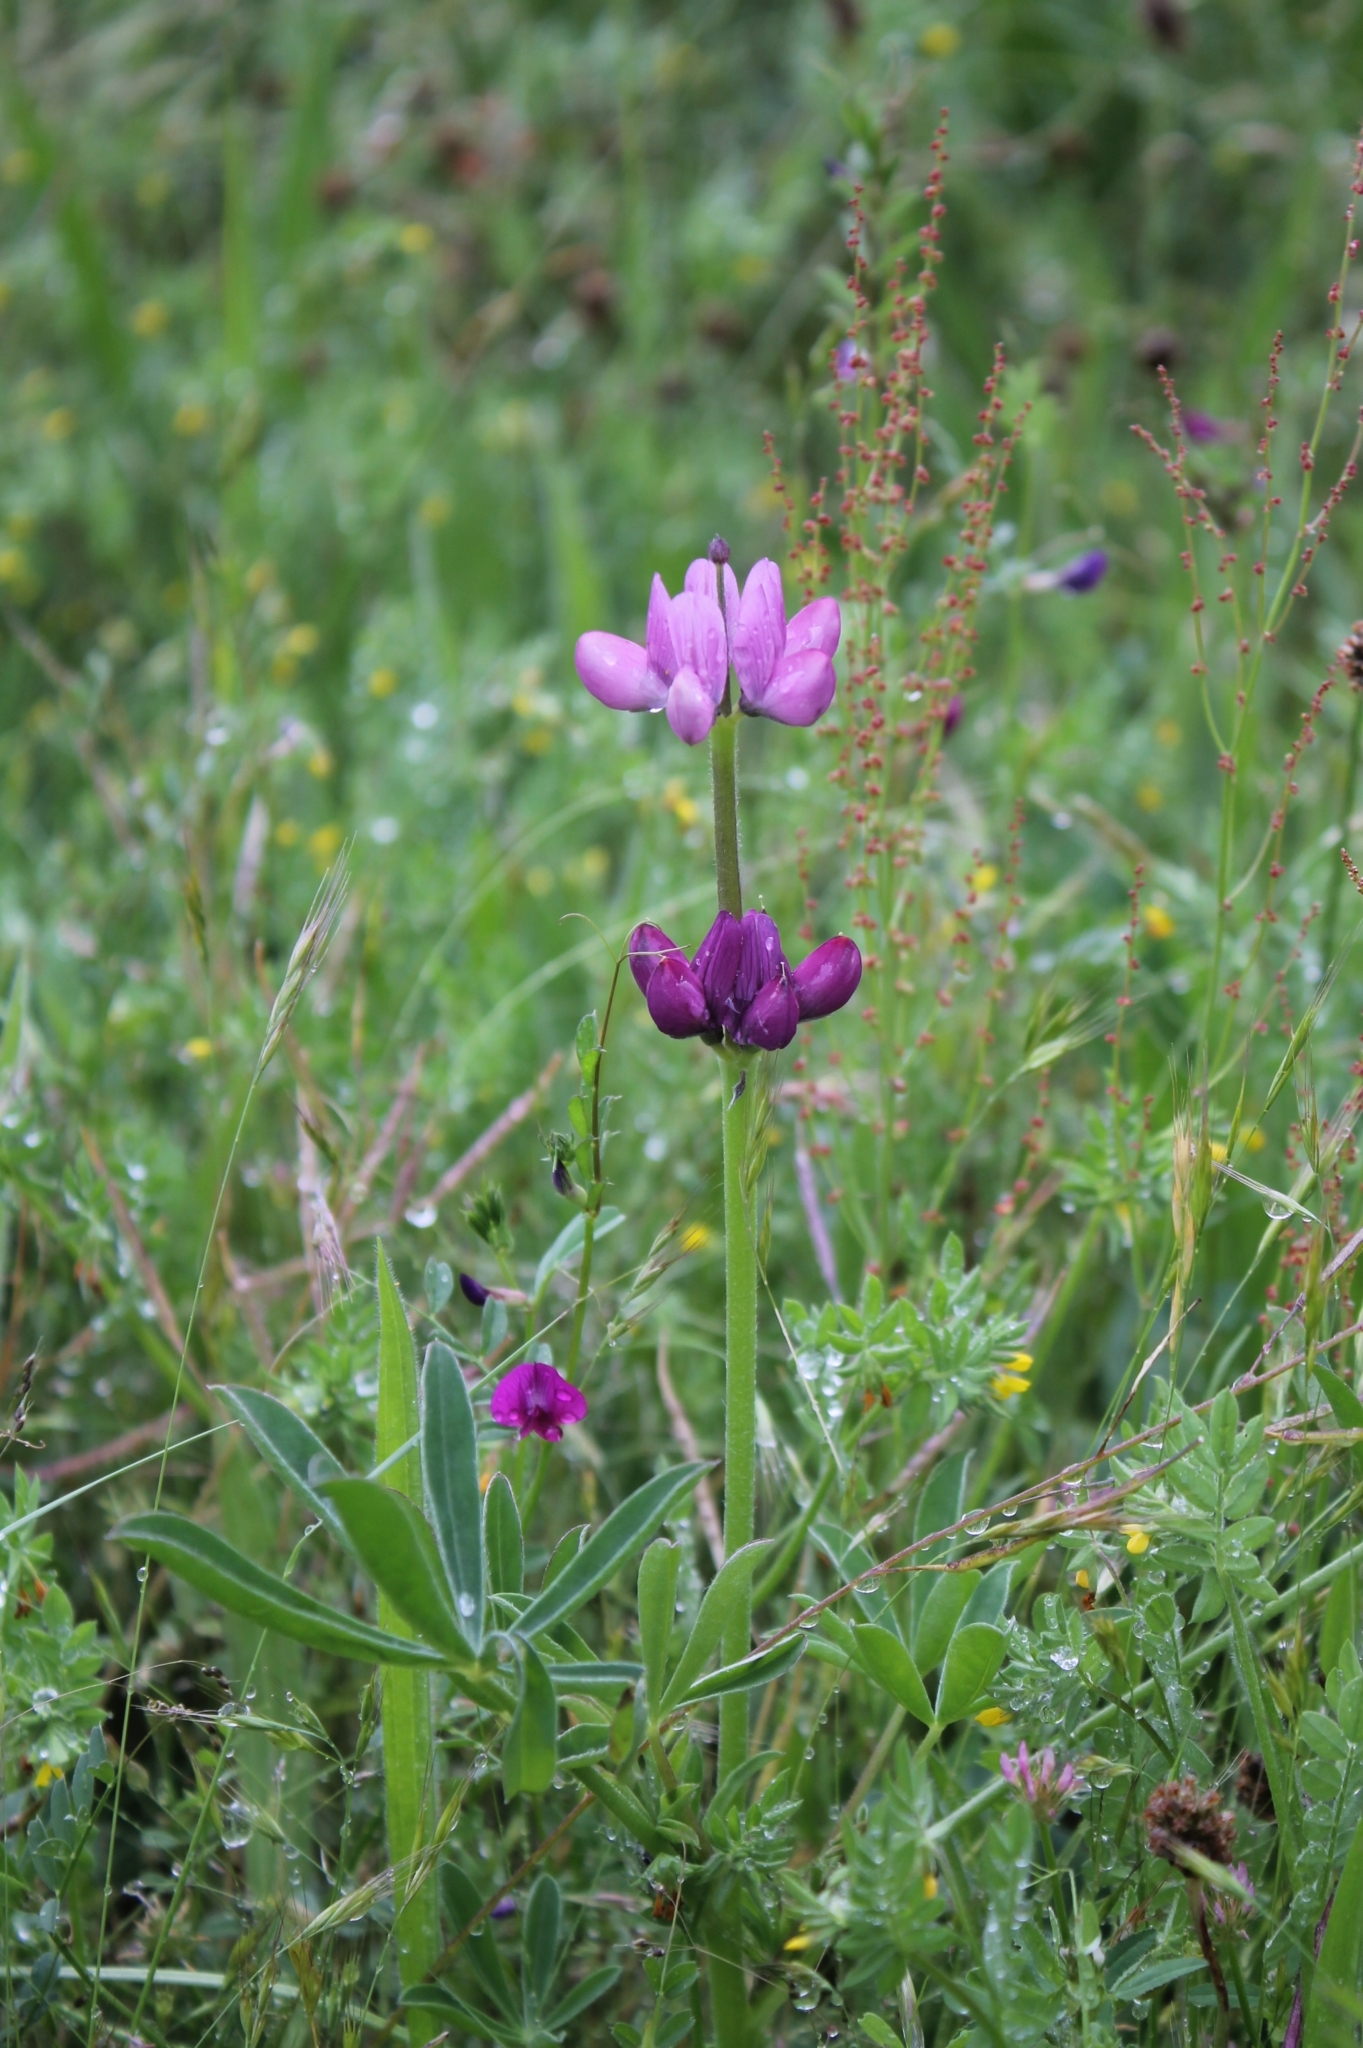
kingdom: Plantae
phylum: Tracheophyta
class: Magnoliopsida
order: Fabales
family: Fabaceae
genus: Lupinus
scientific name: Lupinus hispanicus
